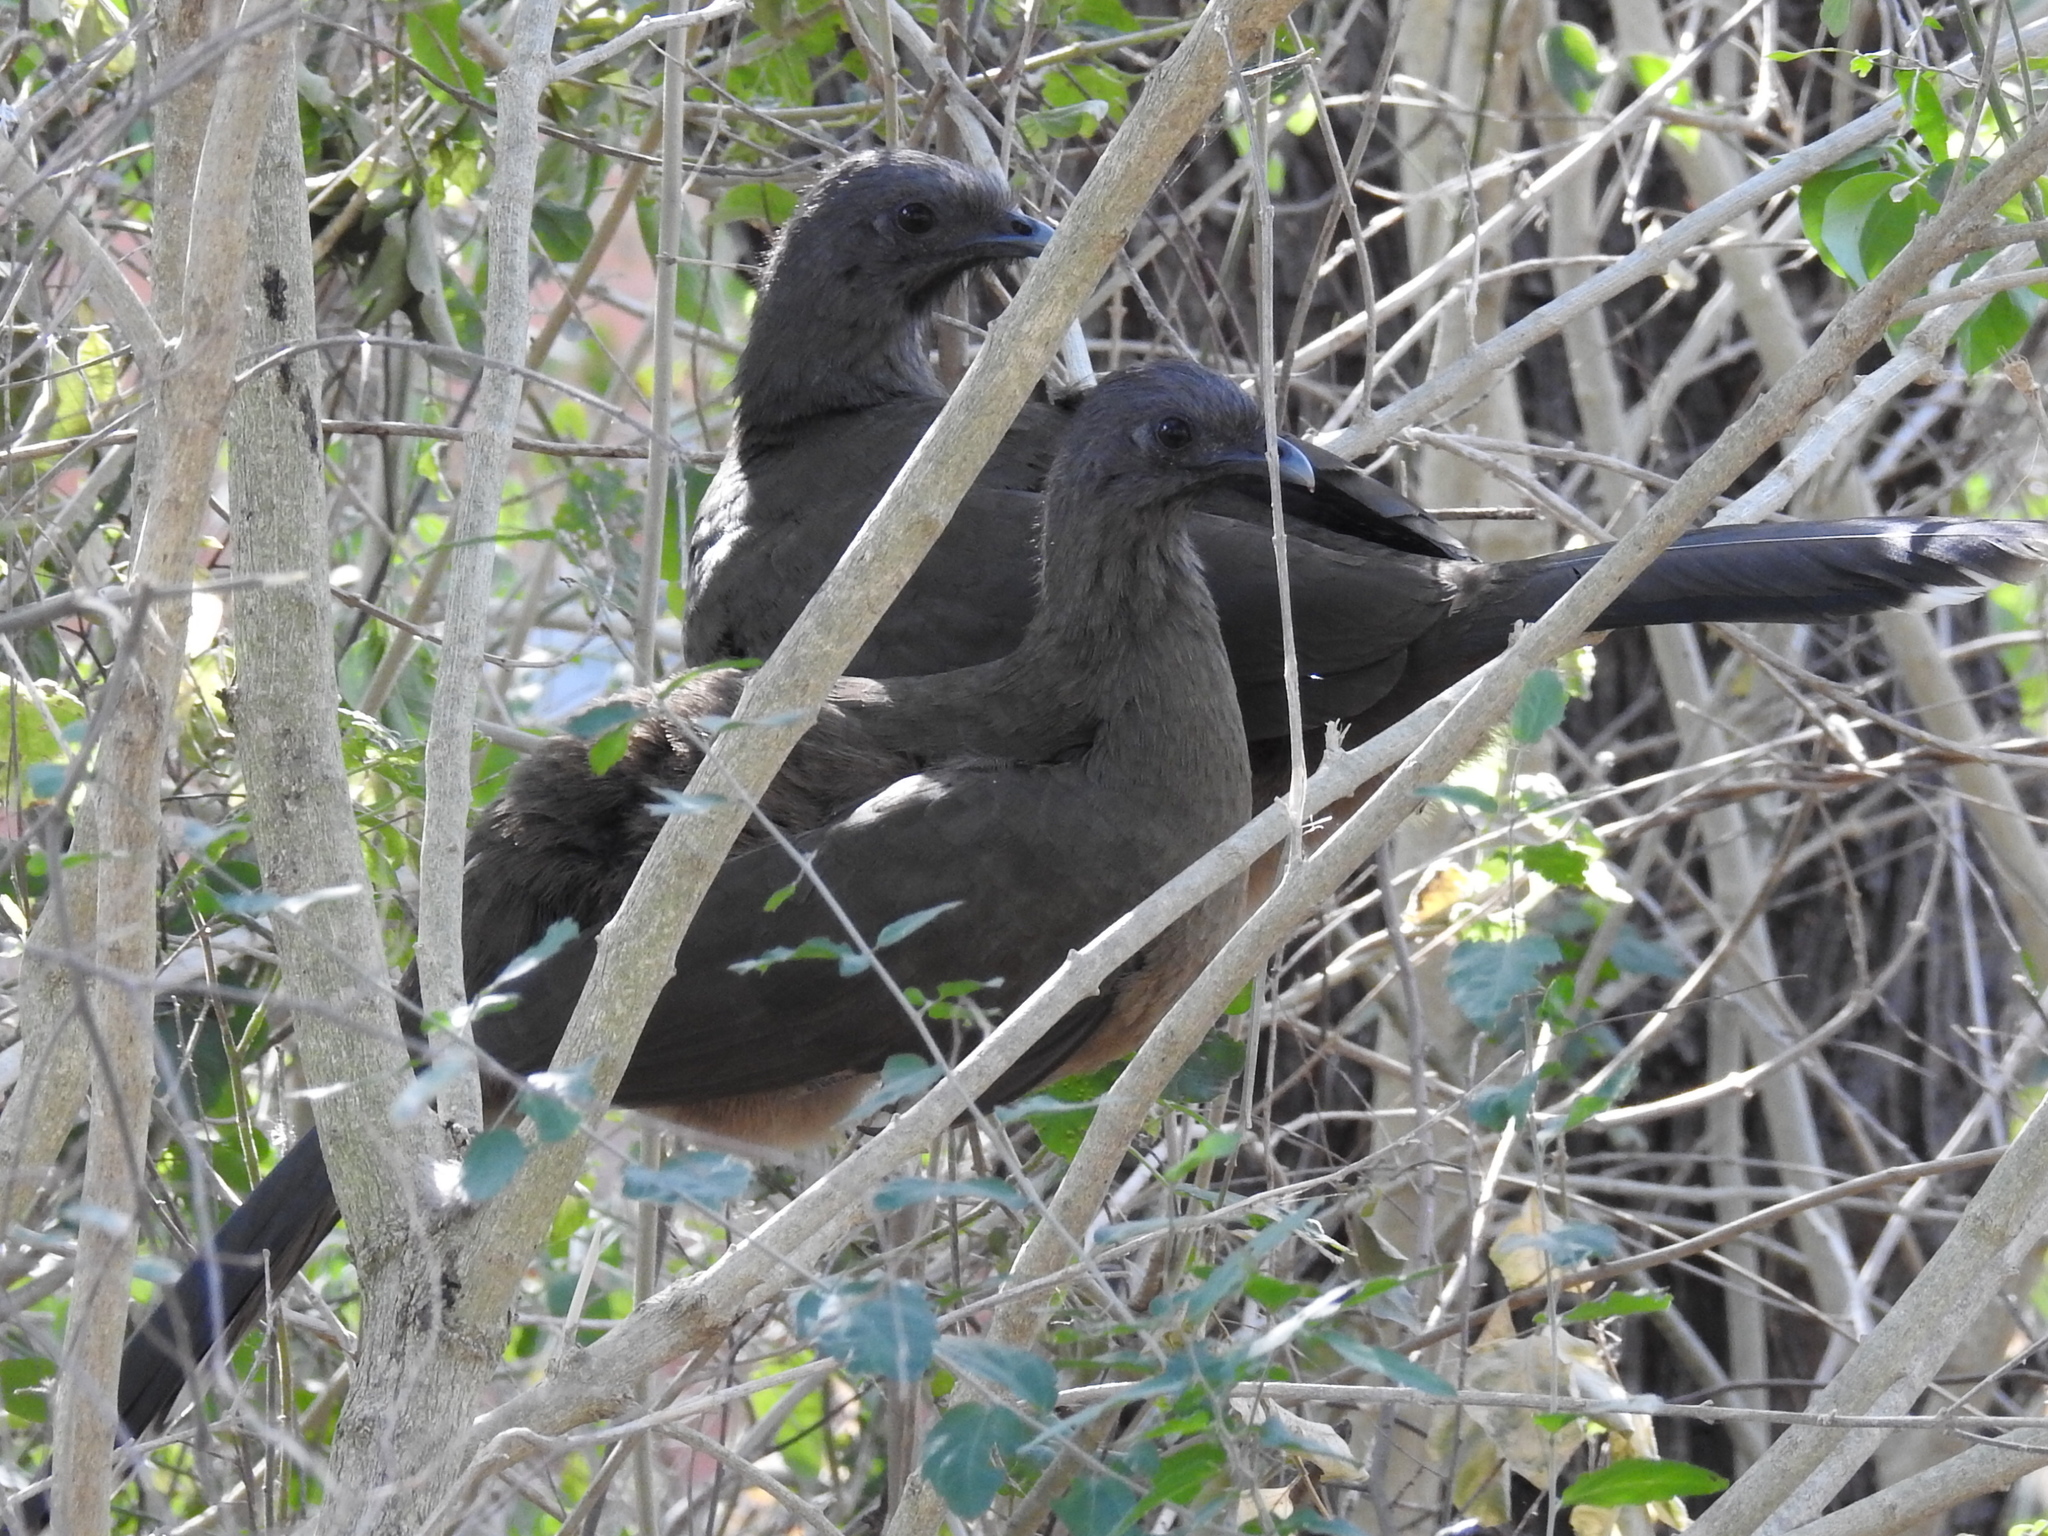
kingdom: Animalia
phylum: Chordata
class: Aves
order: Galliformes
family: Cracidae
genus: Ortalis
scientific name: Ortalis vetula
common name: Plain chachalaca
